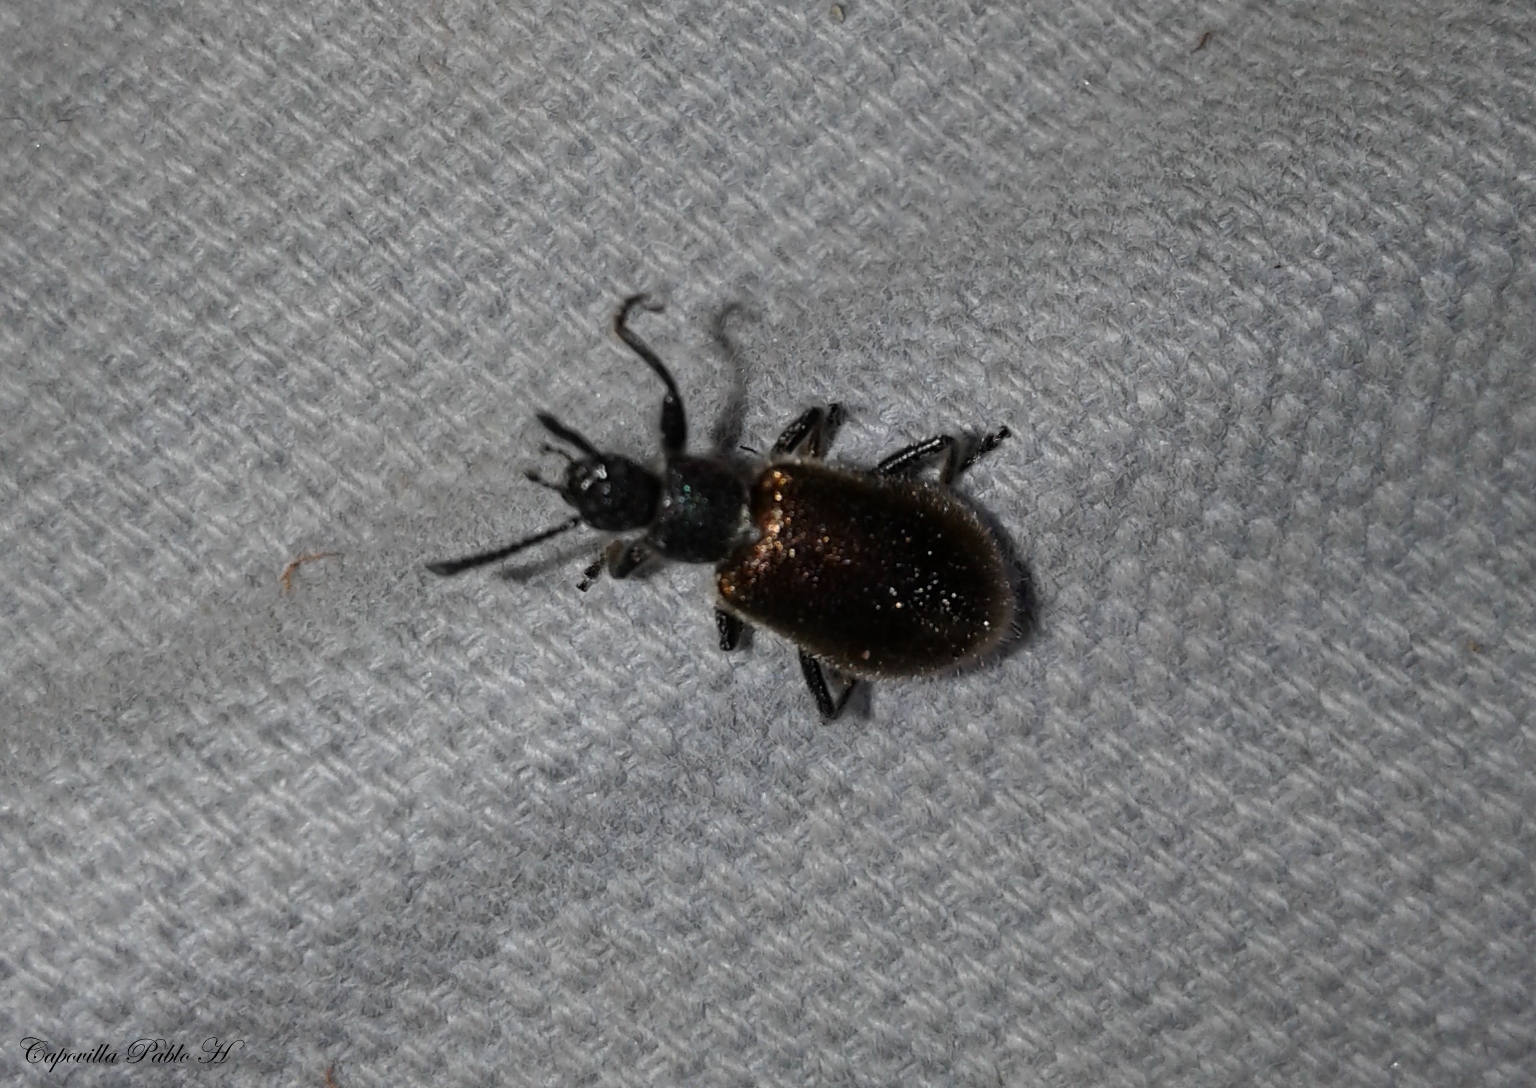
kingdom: Animalia
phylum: Arthropoda
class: Insecta
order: Coleoptera
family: Tenebrionidae
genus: Lagria
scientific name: Lagria villosa
